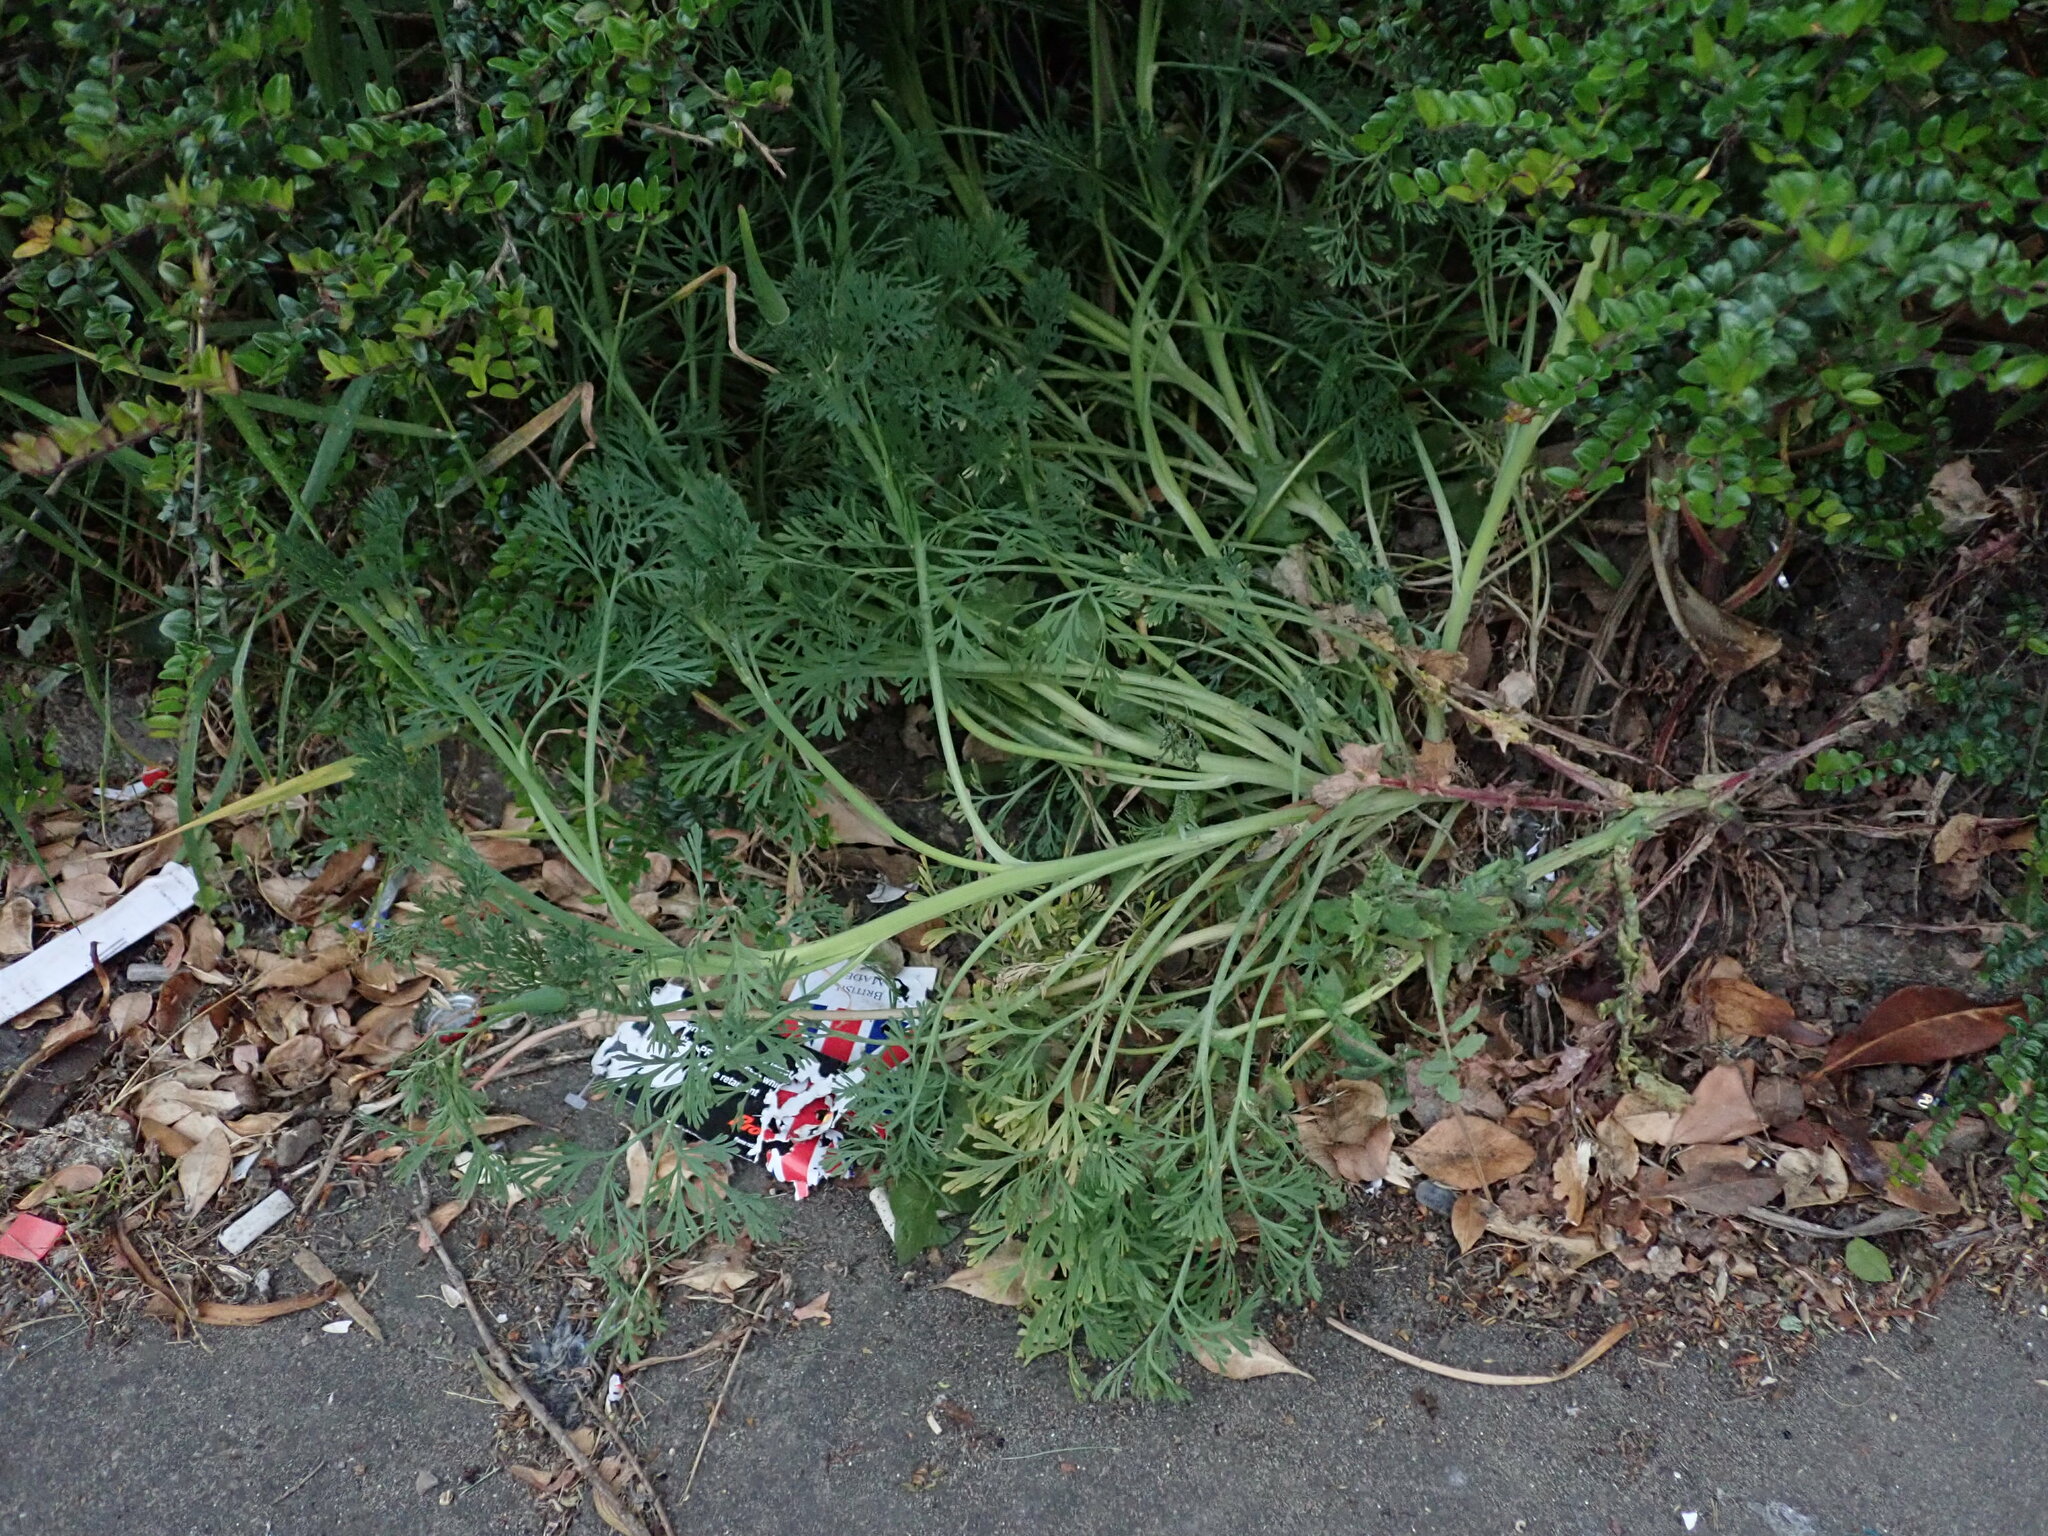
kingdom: Plantae
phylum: Tracheophyta
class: Magnoliopsida
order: Ranunculales
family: Papaveraceae
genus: Eschscholzia
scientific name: Eschscholzia californica
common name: California poppy
